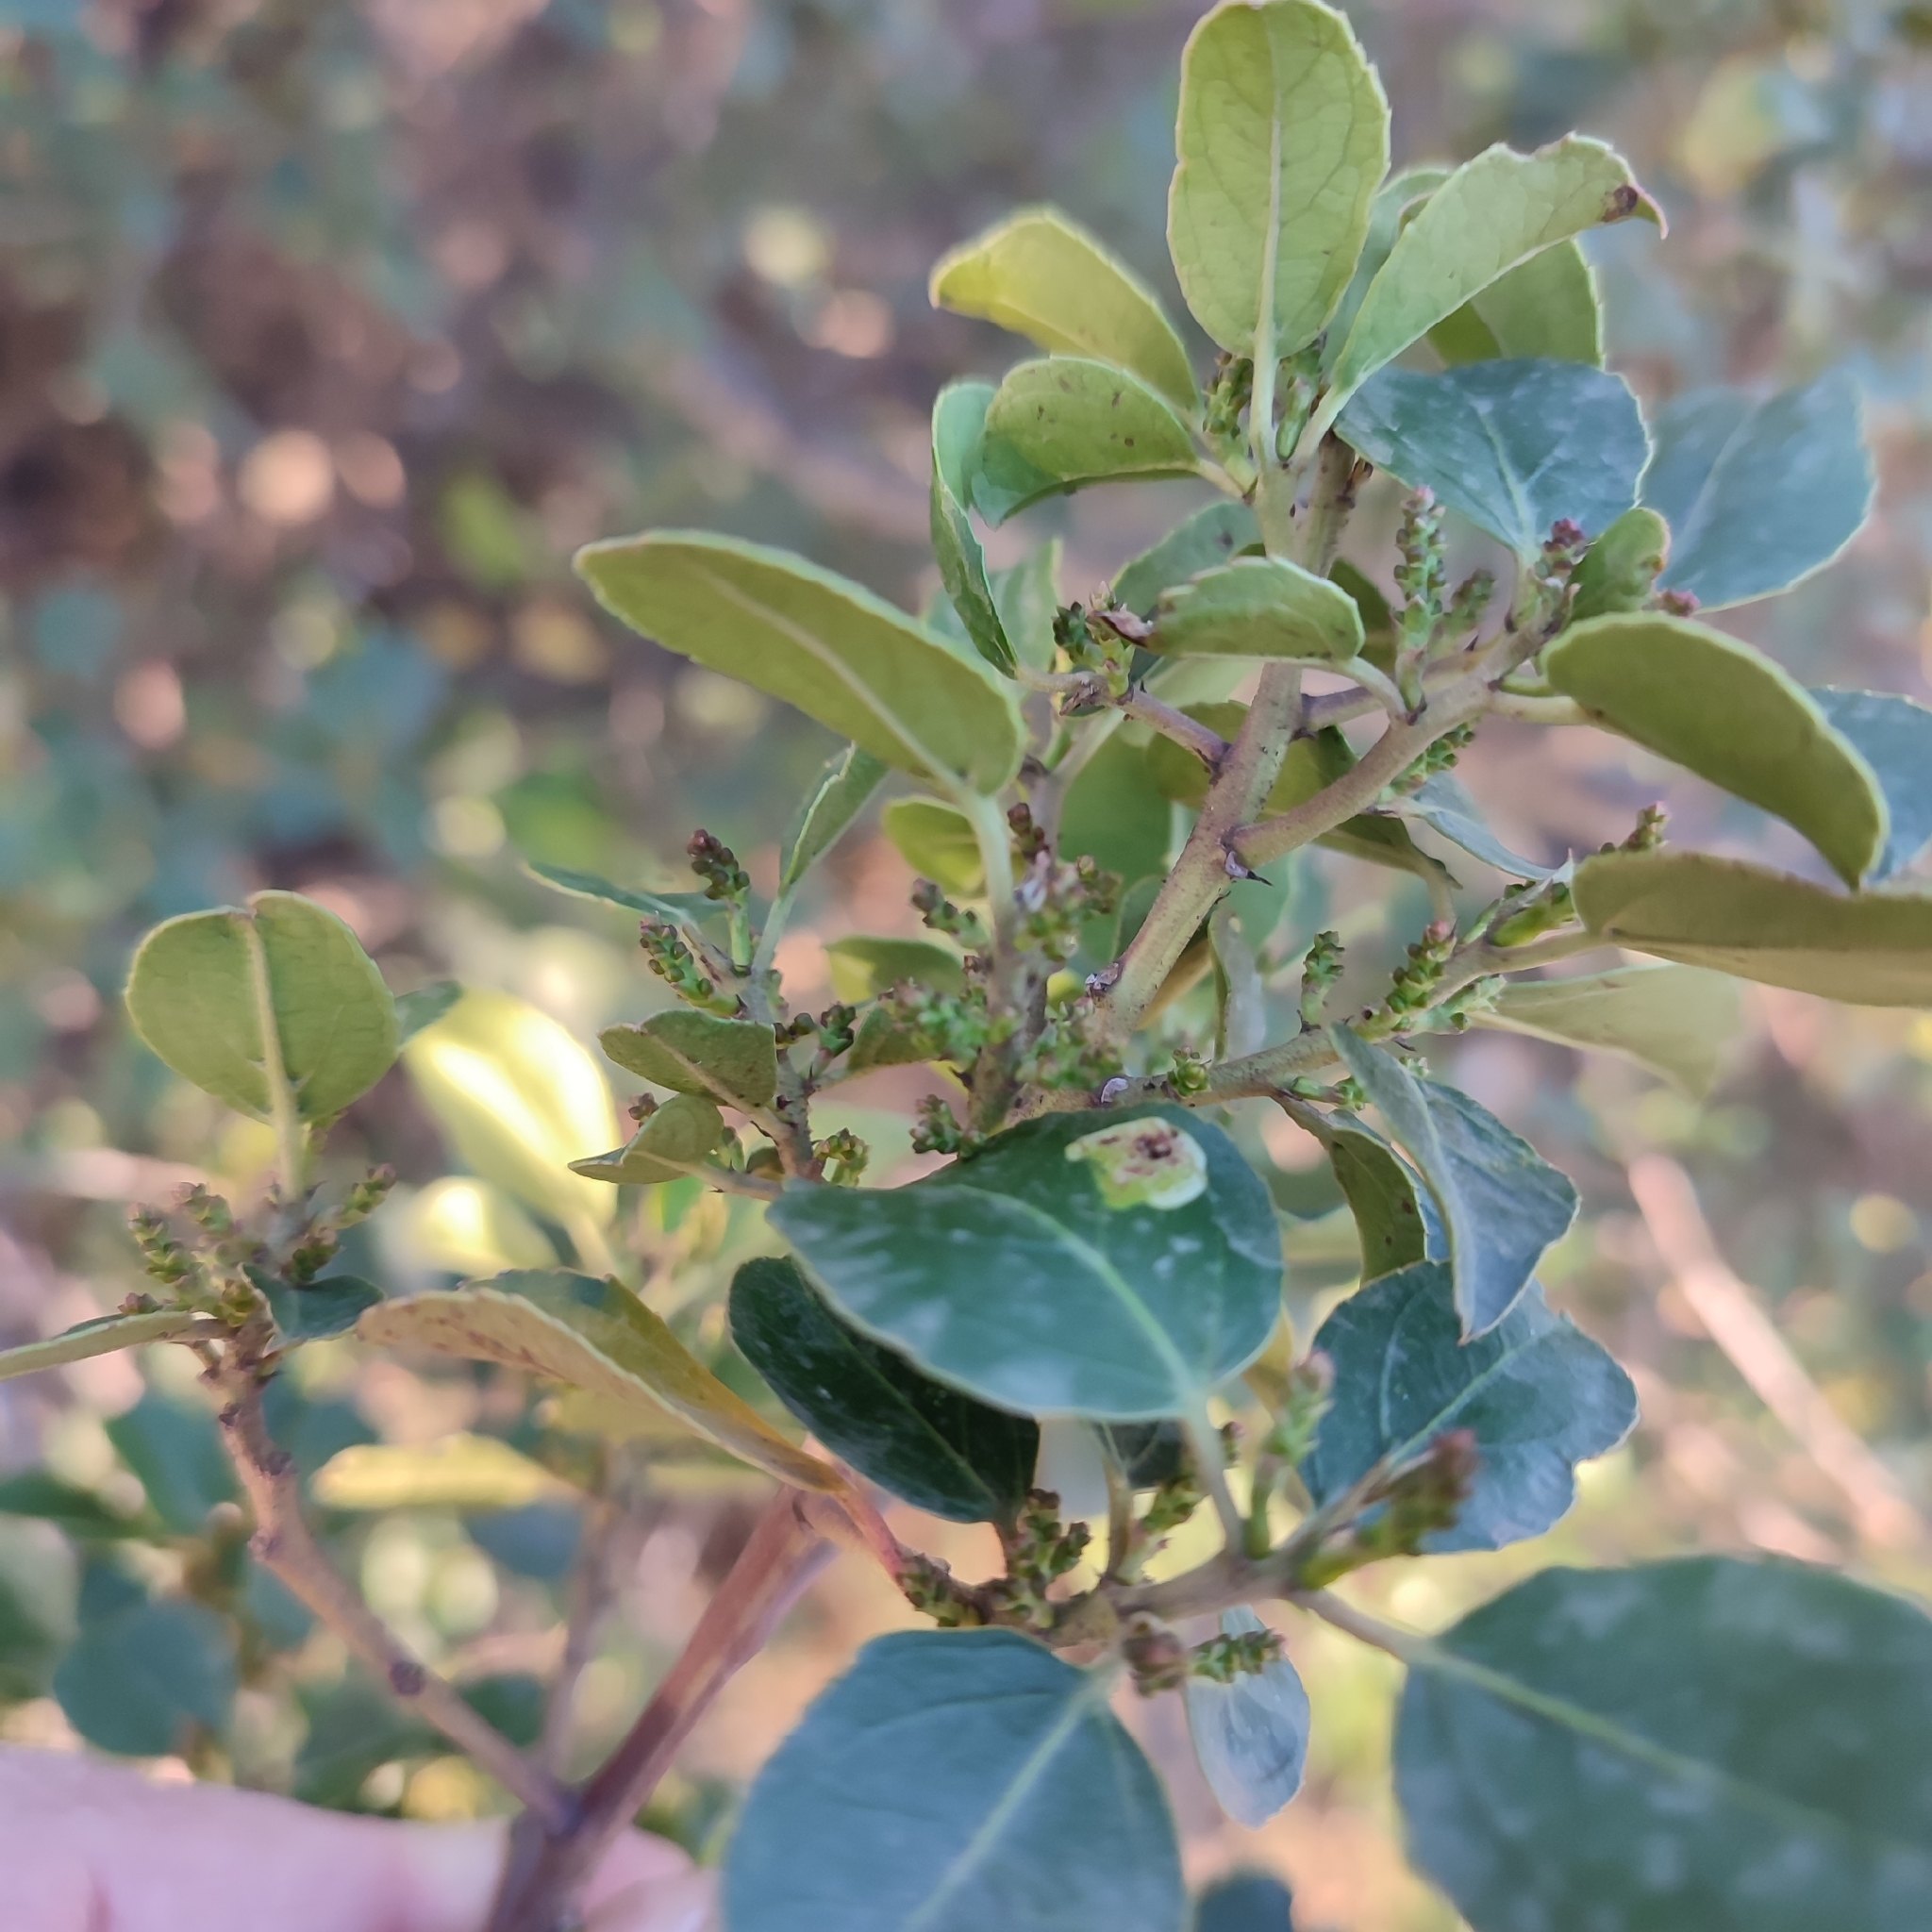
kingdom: Plantae
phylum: Tracheophyta
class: Magnoliopsida
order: Rosales
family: Rhamnaceae
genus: Rhamnus
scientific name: Rhamnus alaternus
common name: Mediterranean buckthorn
